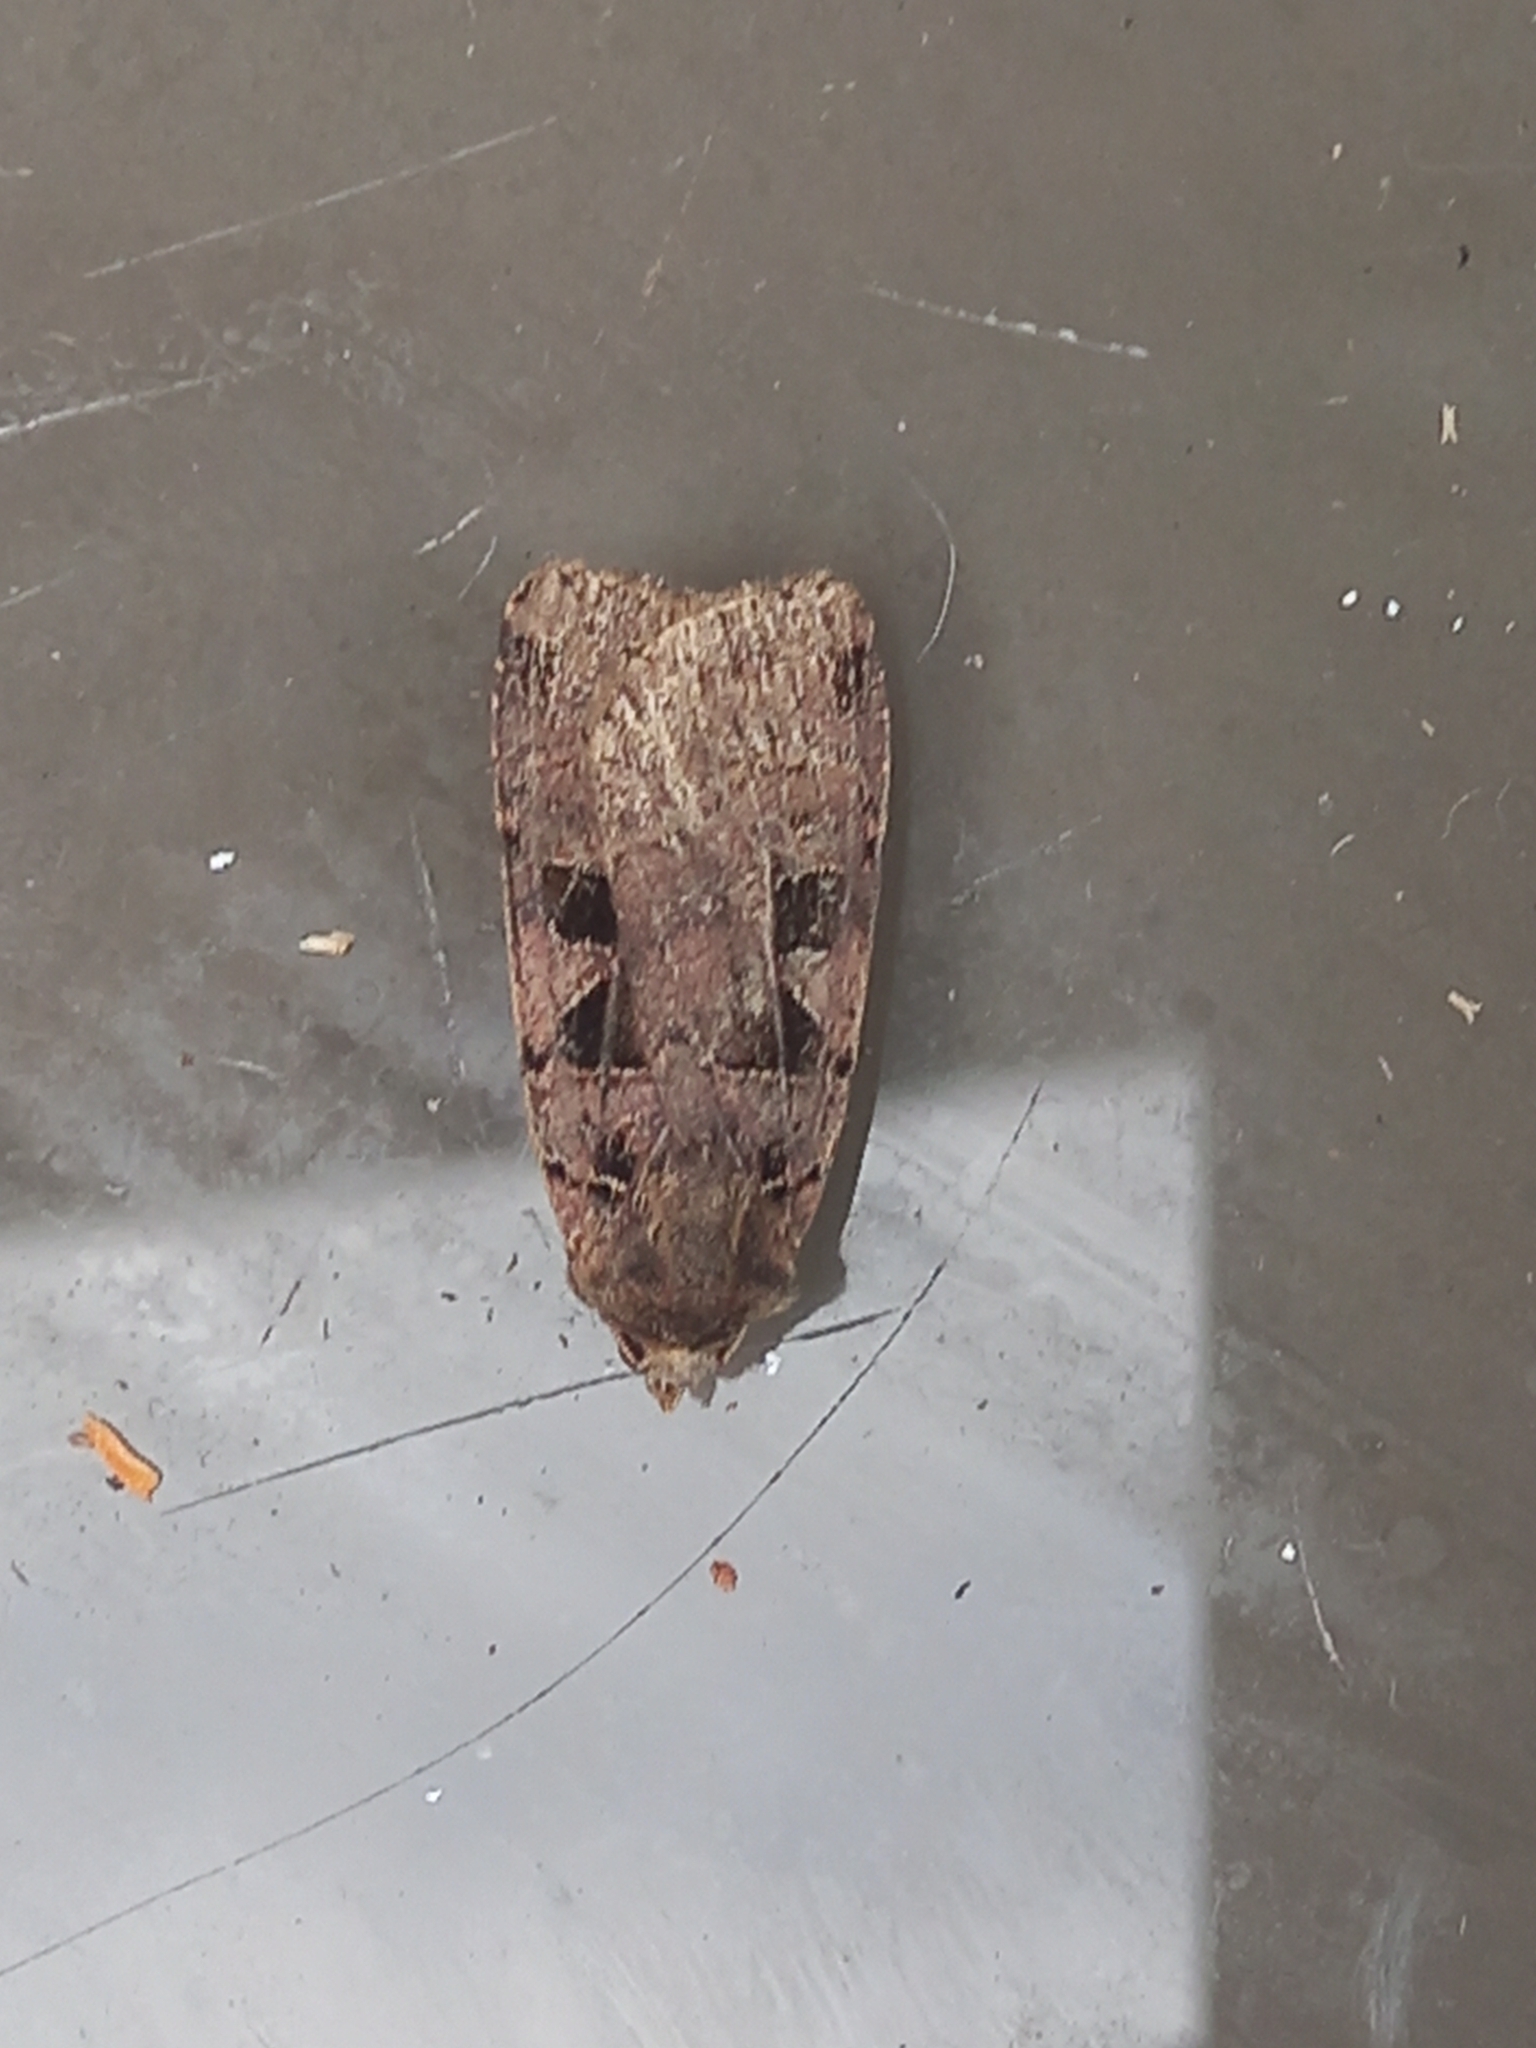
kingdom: Animalia
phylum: Arthropoda
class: Insecta
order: Lepidoptera
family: Noctuidae
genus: Xestia
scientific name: Xestia triangulum
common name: Double square-spot
